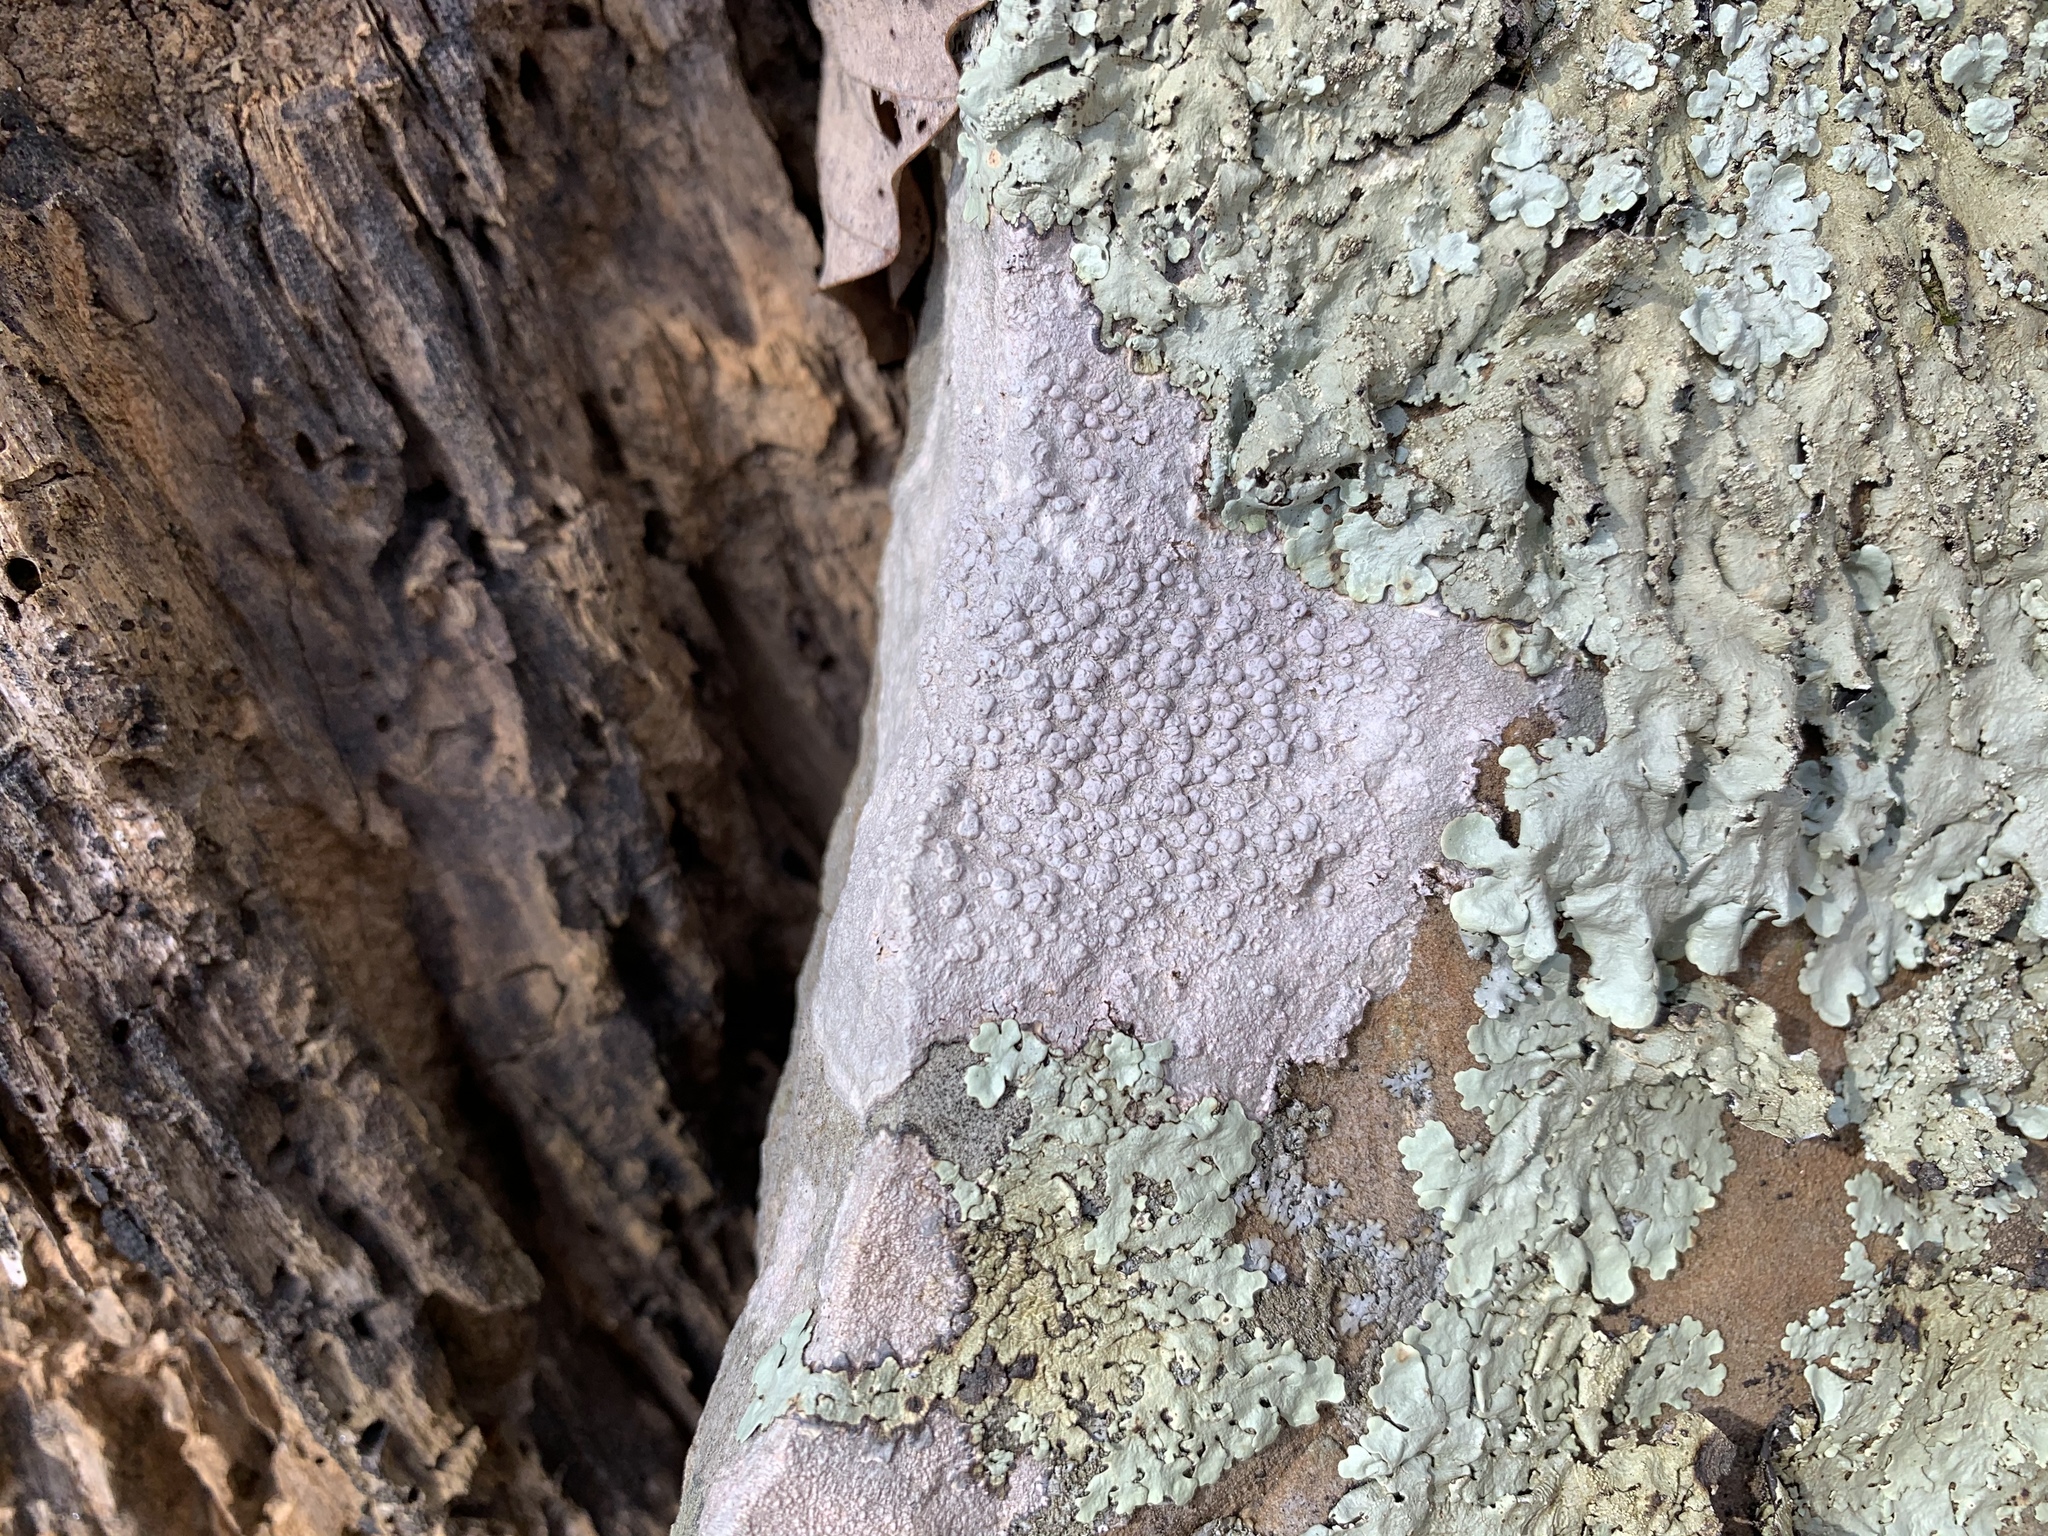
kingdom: Fungi
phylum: Ascomycota
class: Lecanoromycetes
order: Pertusariales
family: Pertusariaceae
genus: Pertusaria
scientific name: Pertusaria plittiana
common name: Rock wart lichen
